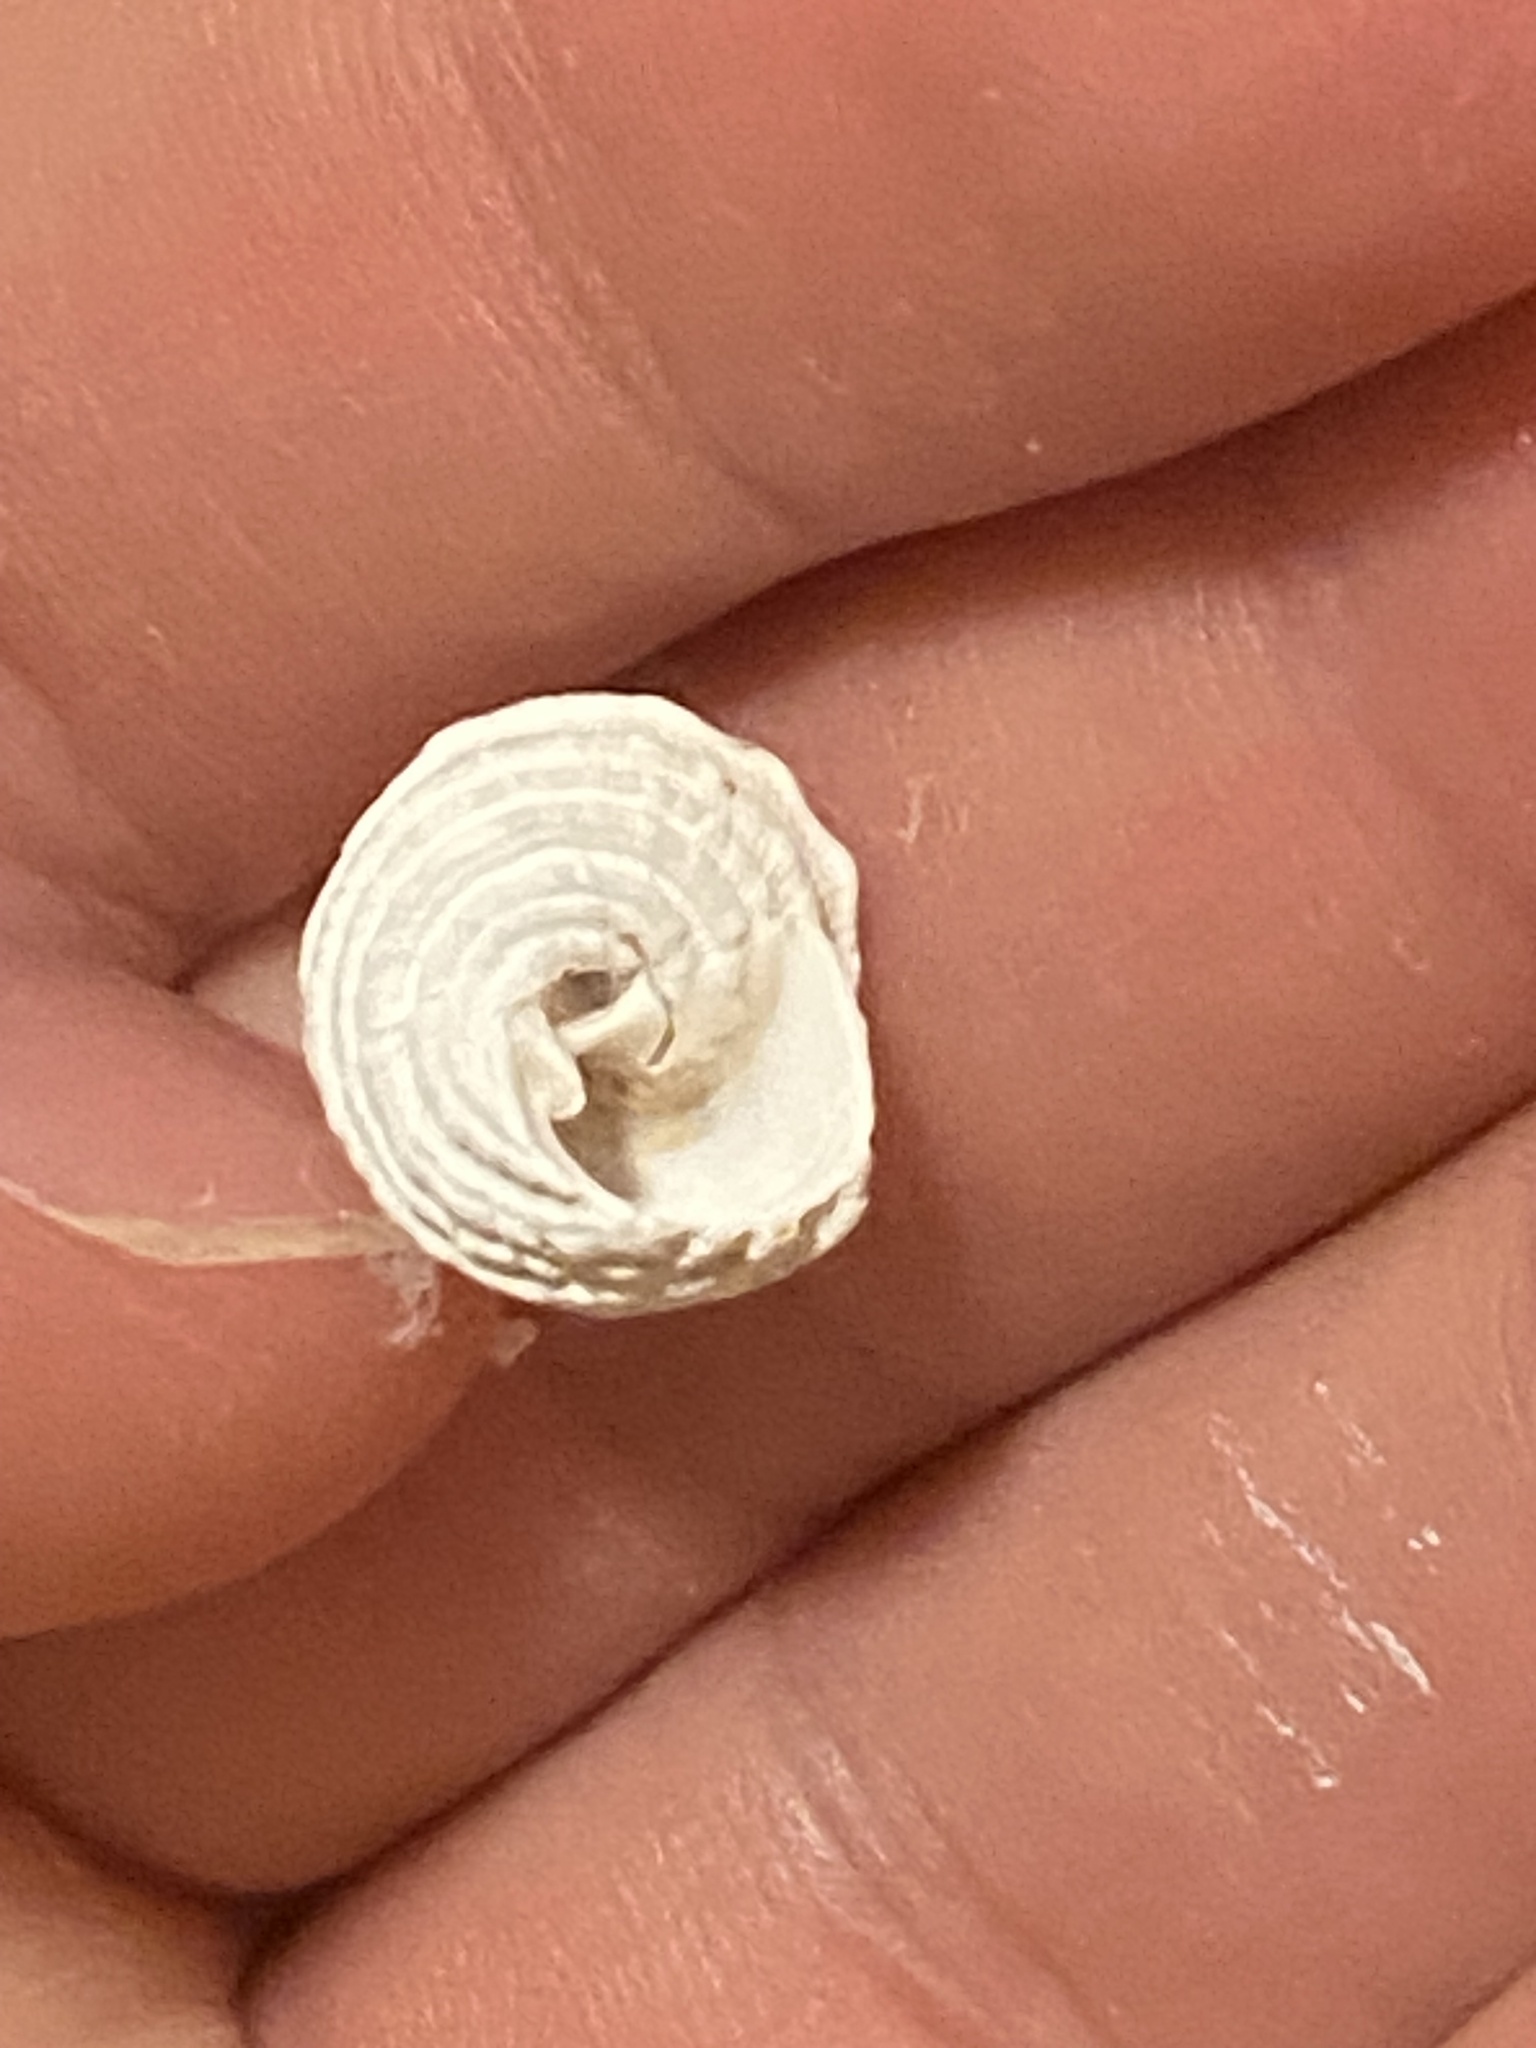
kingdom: Animalia
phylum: Mollusca
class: Gastropoda
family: Modulidae
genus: Modulus
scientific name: Modulus modulus
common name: Atlantic modulus
